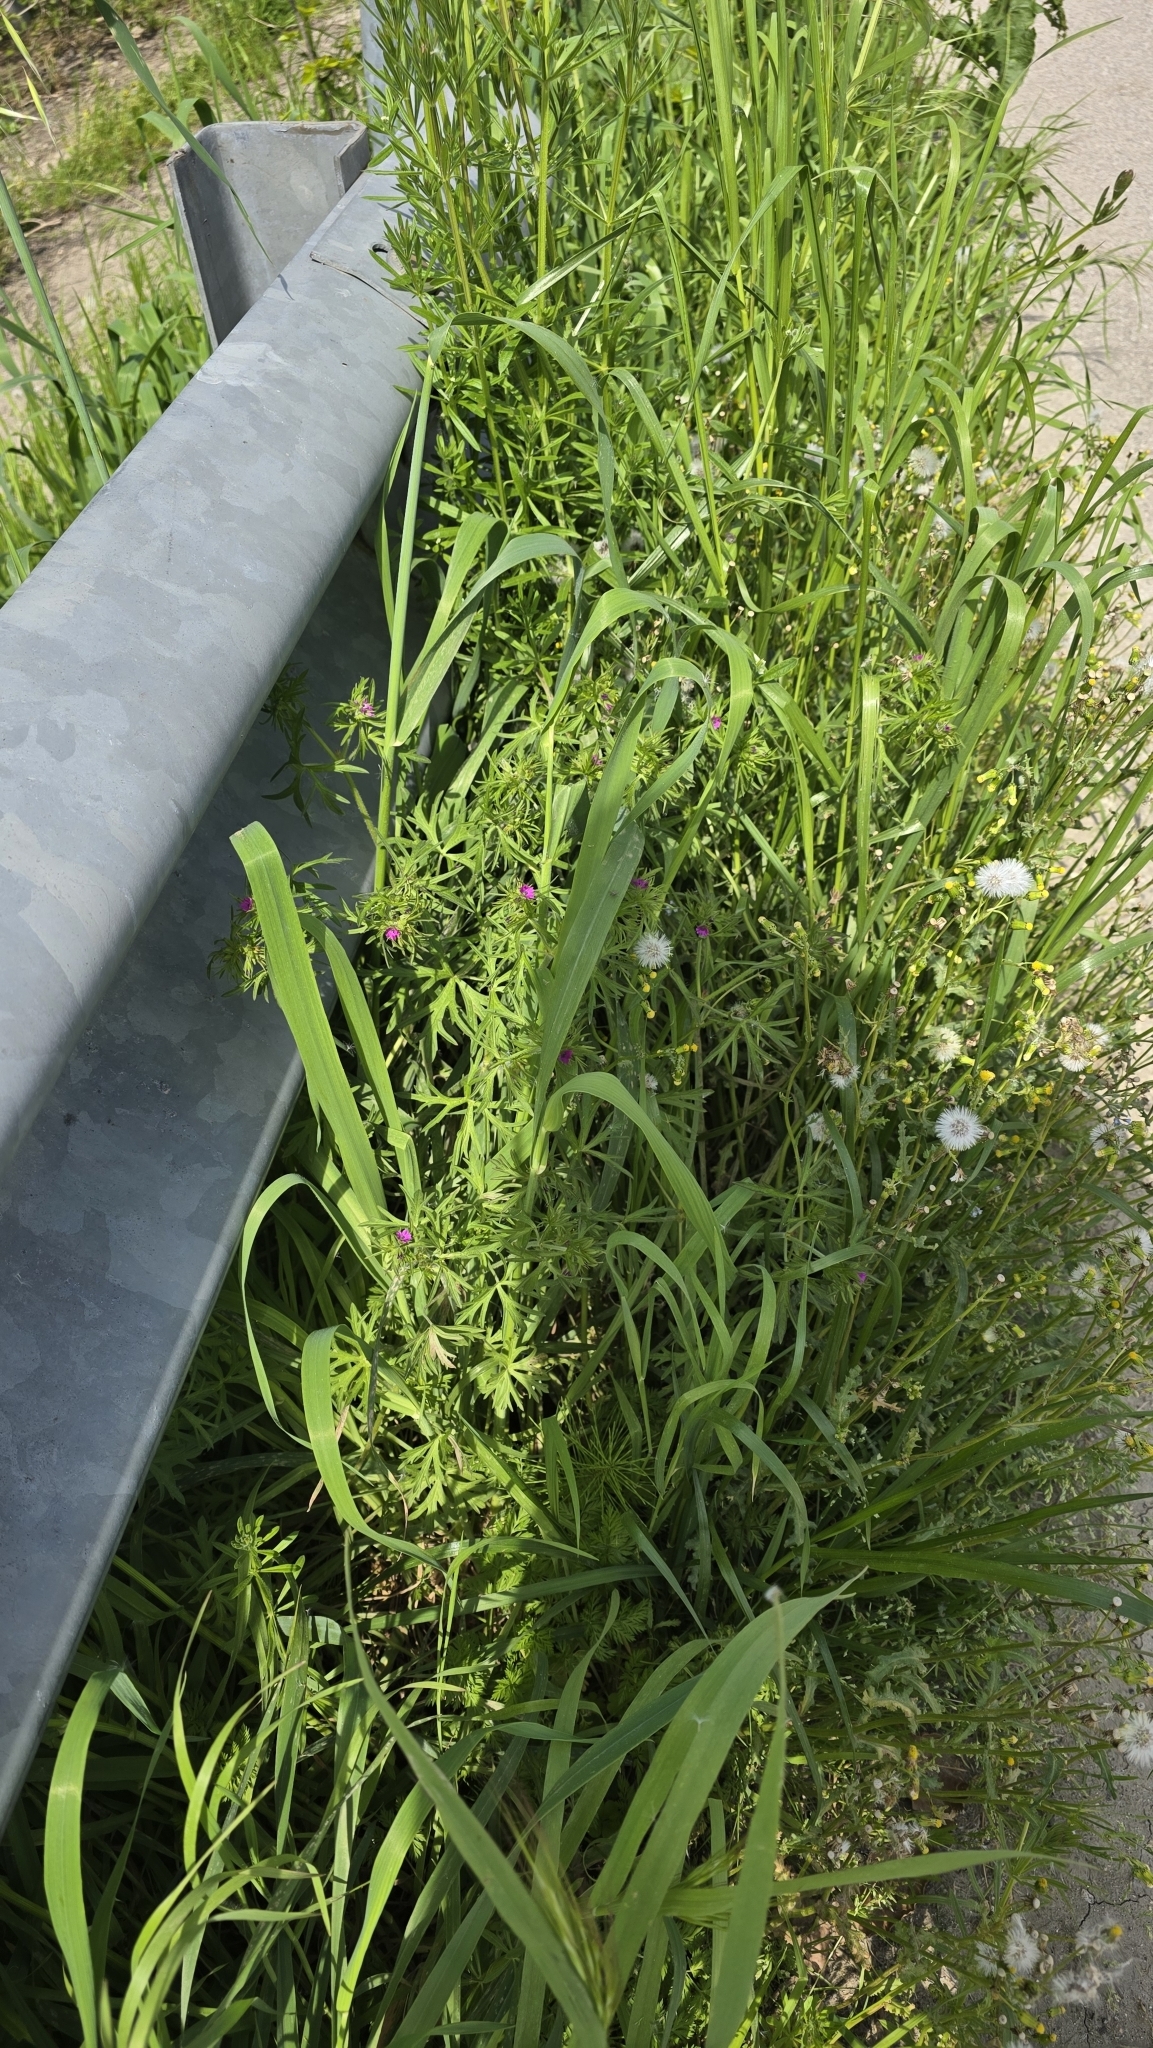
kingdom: Plantae
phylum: Tracheophyta
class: Magnoliopsida
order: Geraniales
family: Geraniaceae
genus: Geranium
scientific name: Geranium dissectum
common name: Cut-leaved crane's-bill
